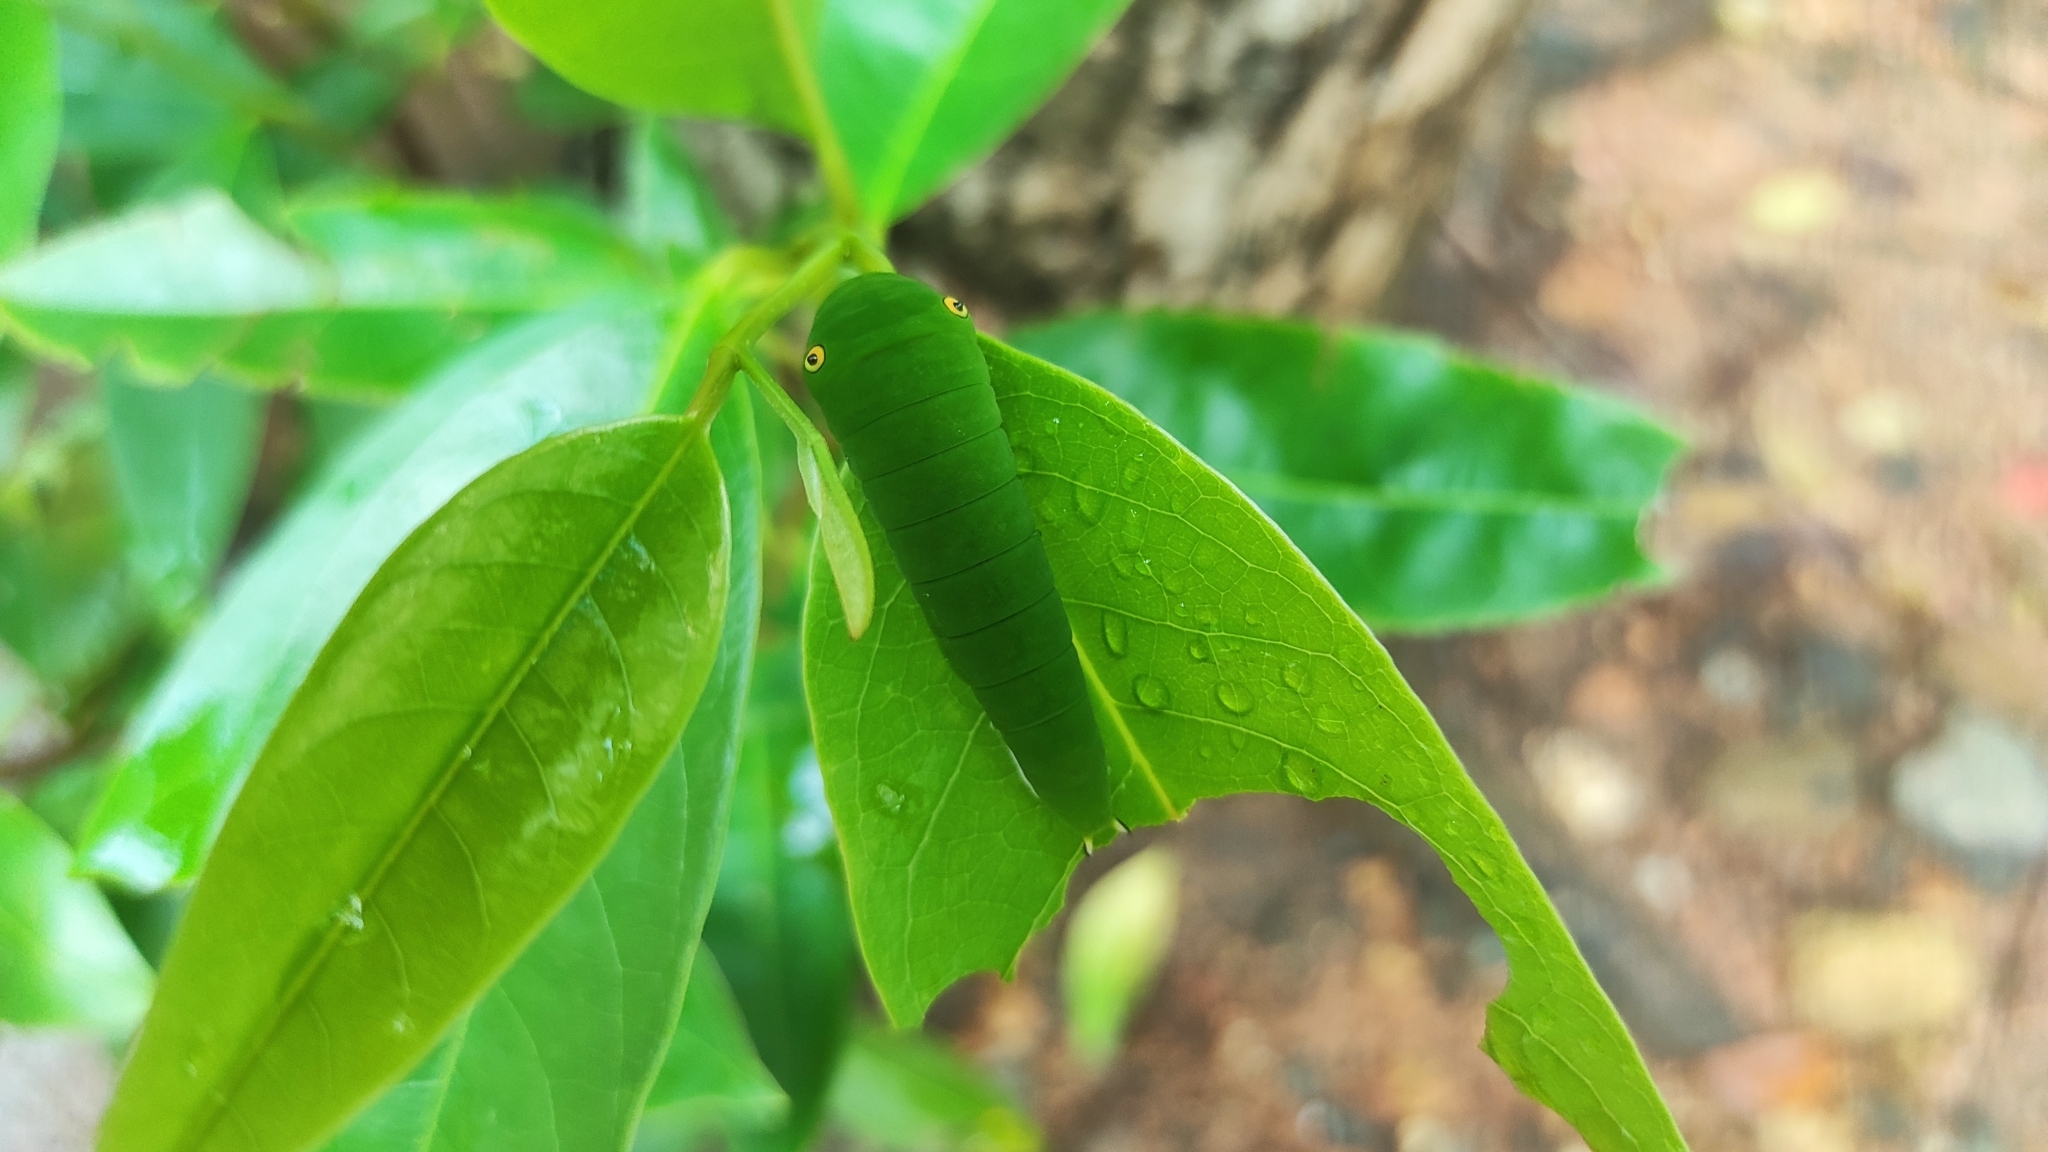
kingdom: Animalia
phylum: Arthropoda
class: Insecta
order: Lepidoptera
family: Papilionidae
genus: Graphium
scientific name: Graphium doson
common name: Common jay
